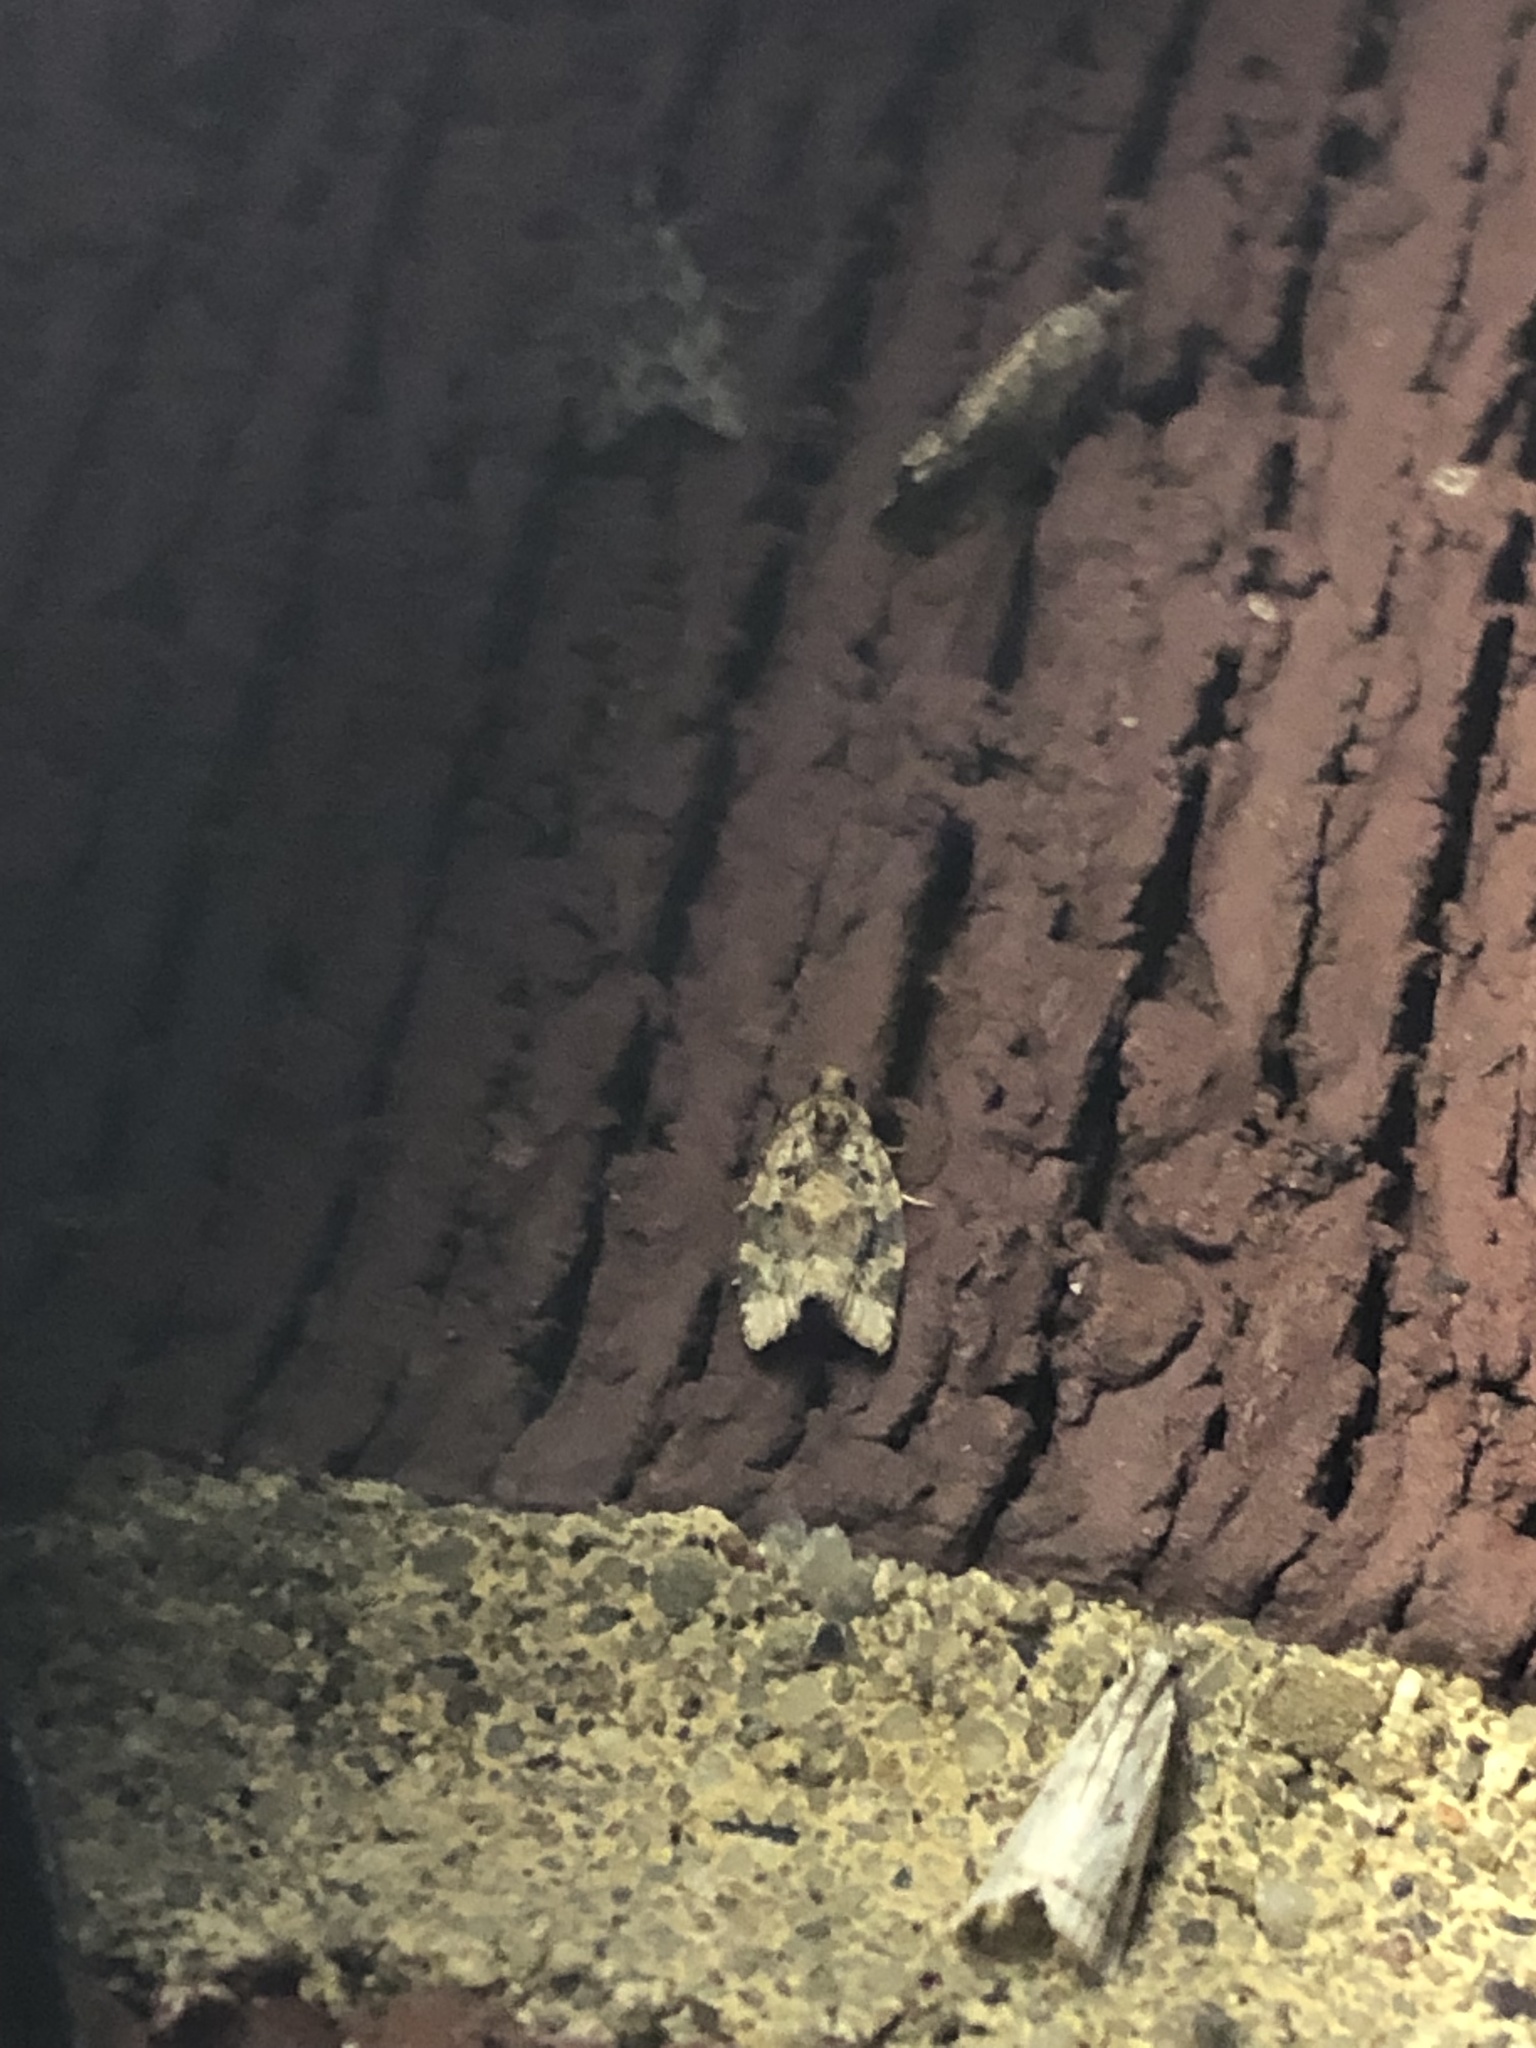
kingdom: Animalia
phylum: Arthropoda
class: Insecta
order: Lepidoptera
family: Tortricidae
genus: Argyrotaenia
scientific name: Argyrotaenia velutinana
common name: Red-banded leafroller moth
